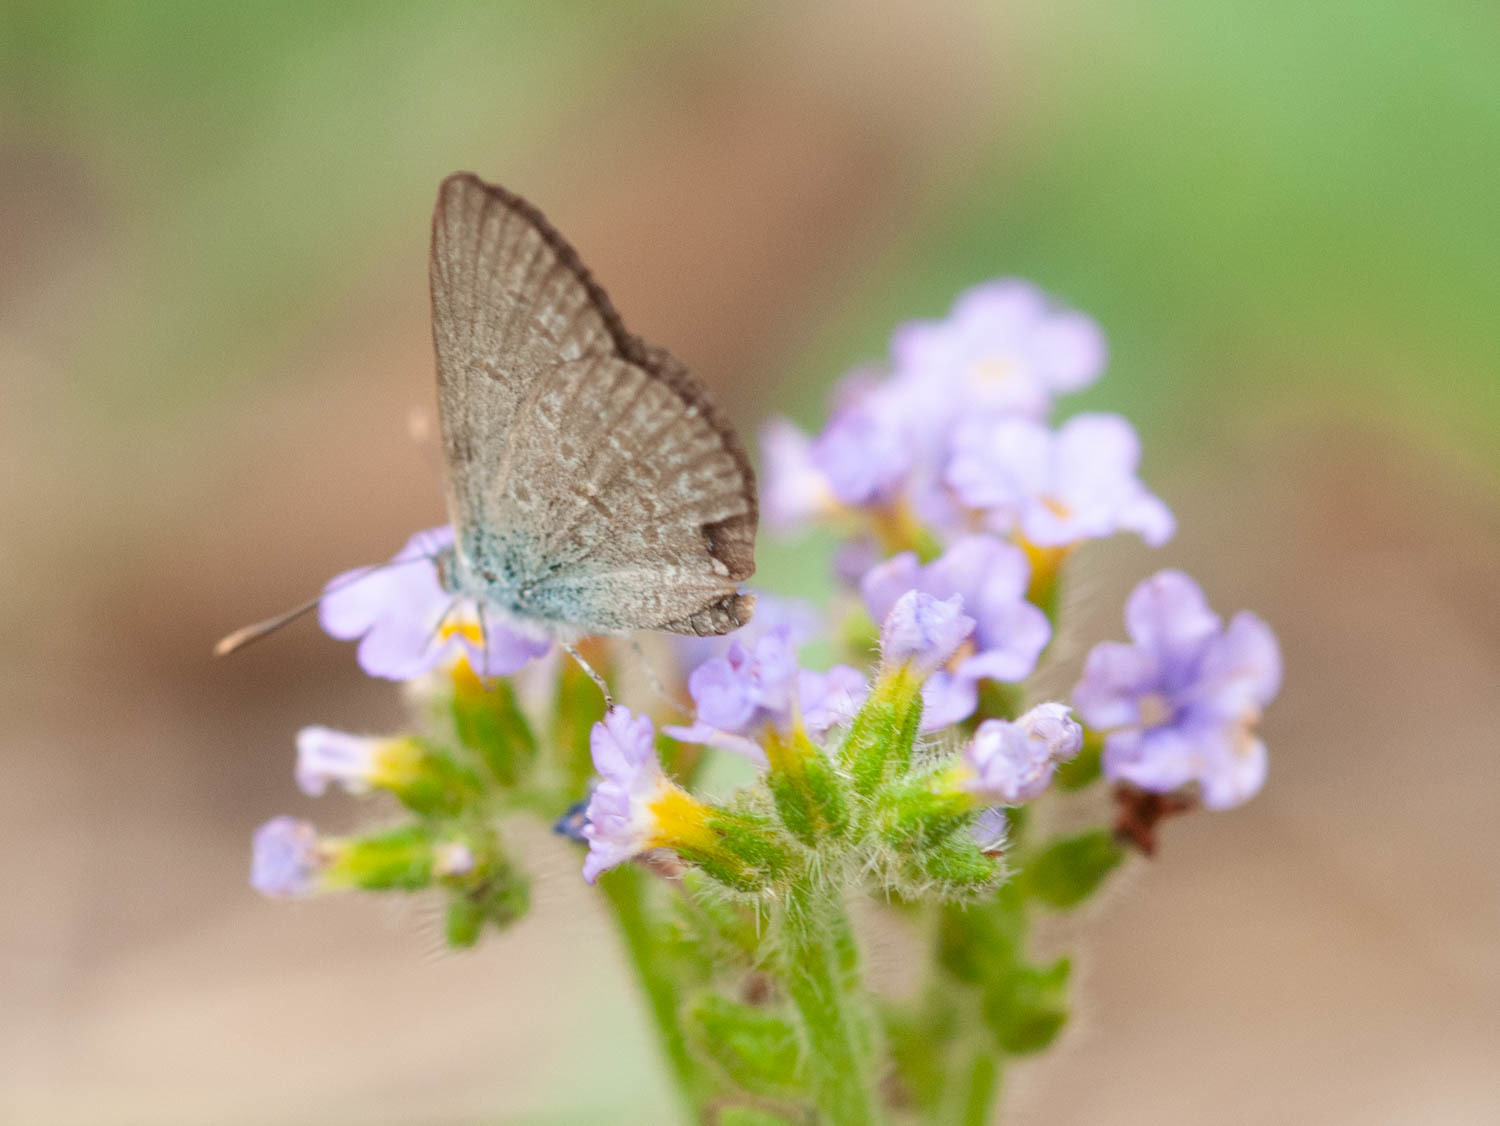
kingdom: Animalia
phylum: Arthropoda
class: Insecta
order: Lepidoptera
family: Lycaenidae
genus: Zizina
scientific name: Zizina labradus
